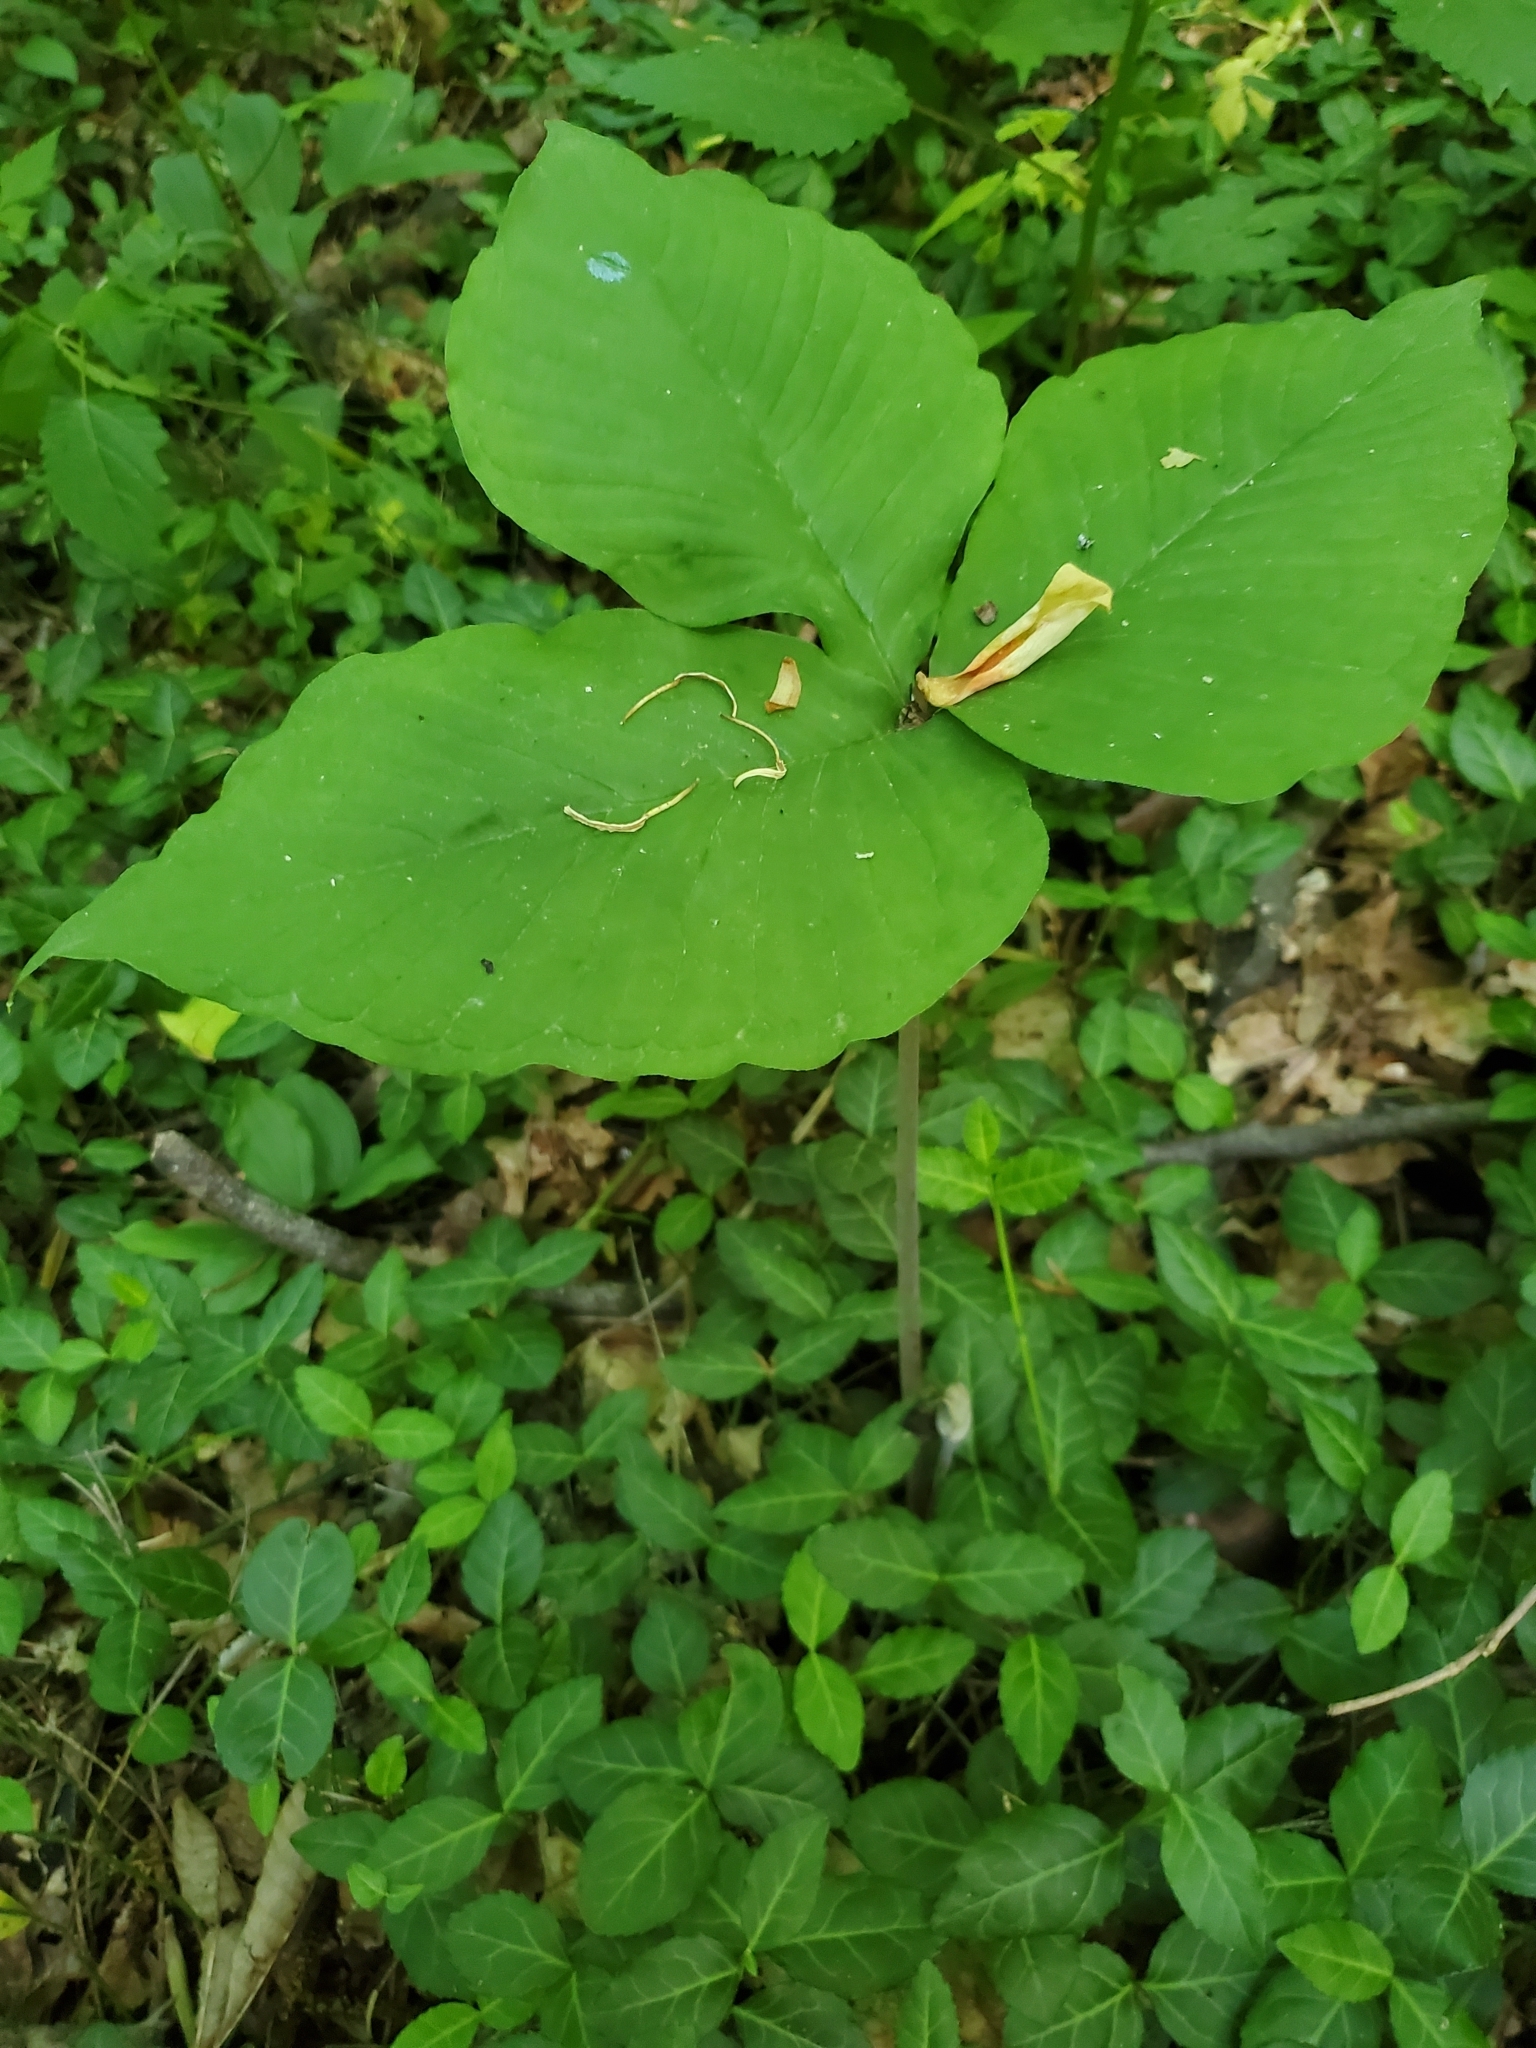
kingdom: Plantae
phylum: Tracheophyta
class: Liliopsida
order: Alismatales
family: Araceae
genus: Arisaema
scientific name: Arisaema triphyllum
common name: Jack-in-the-pulpit
